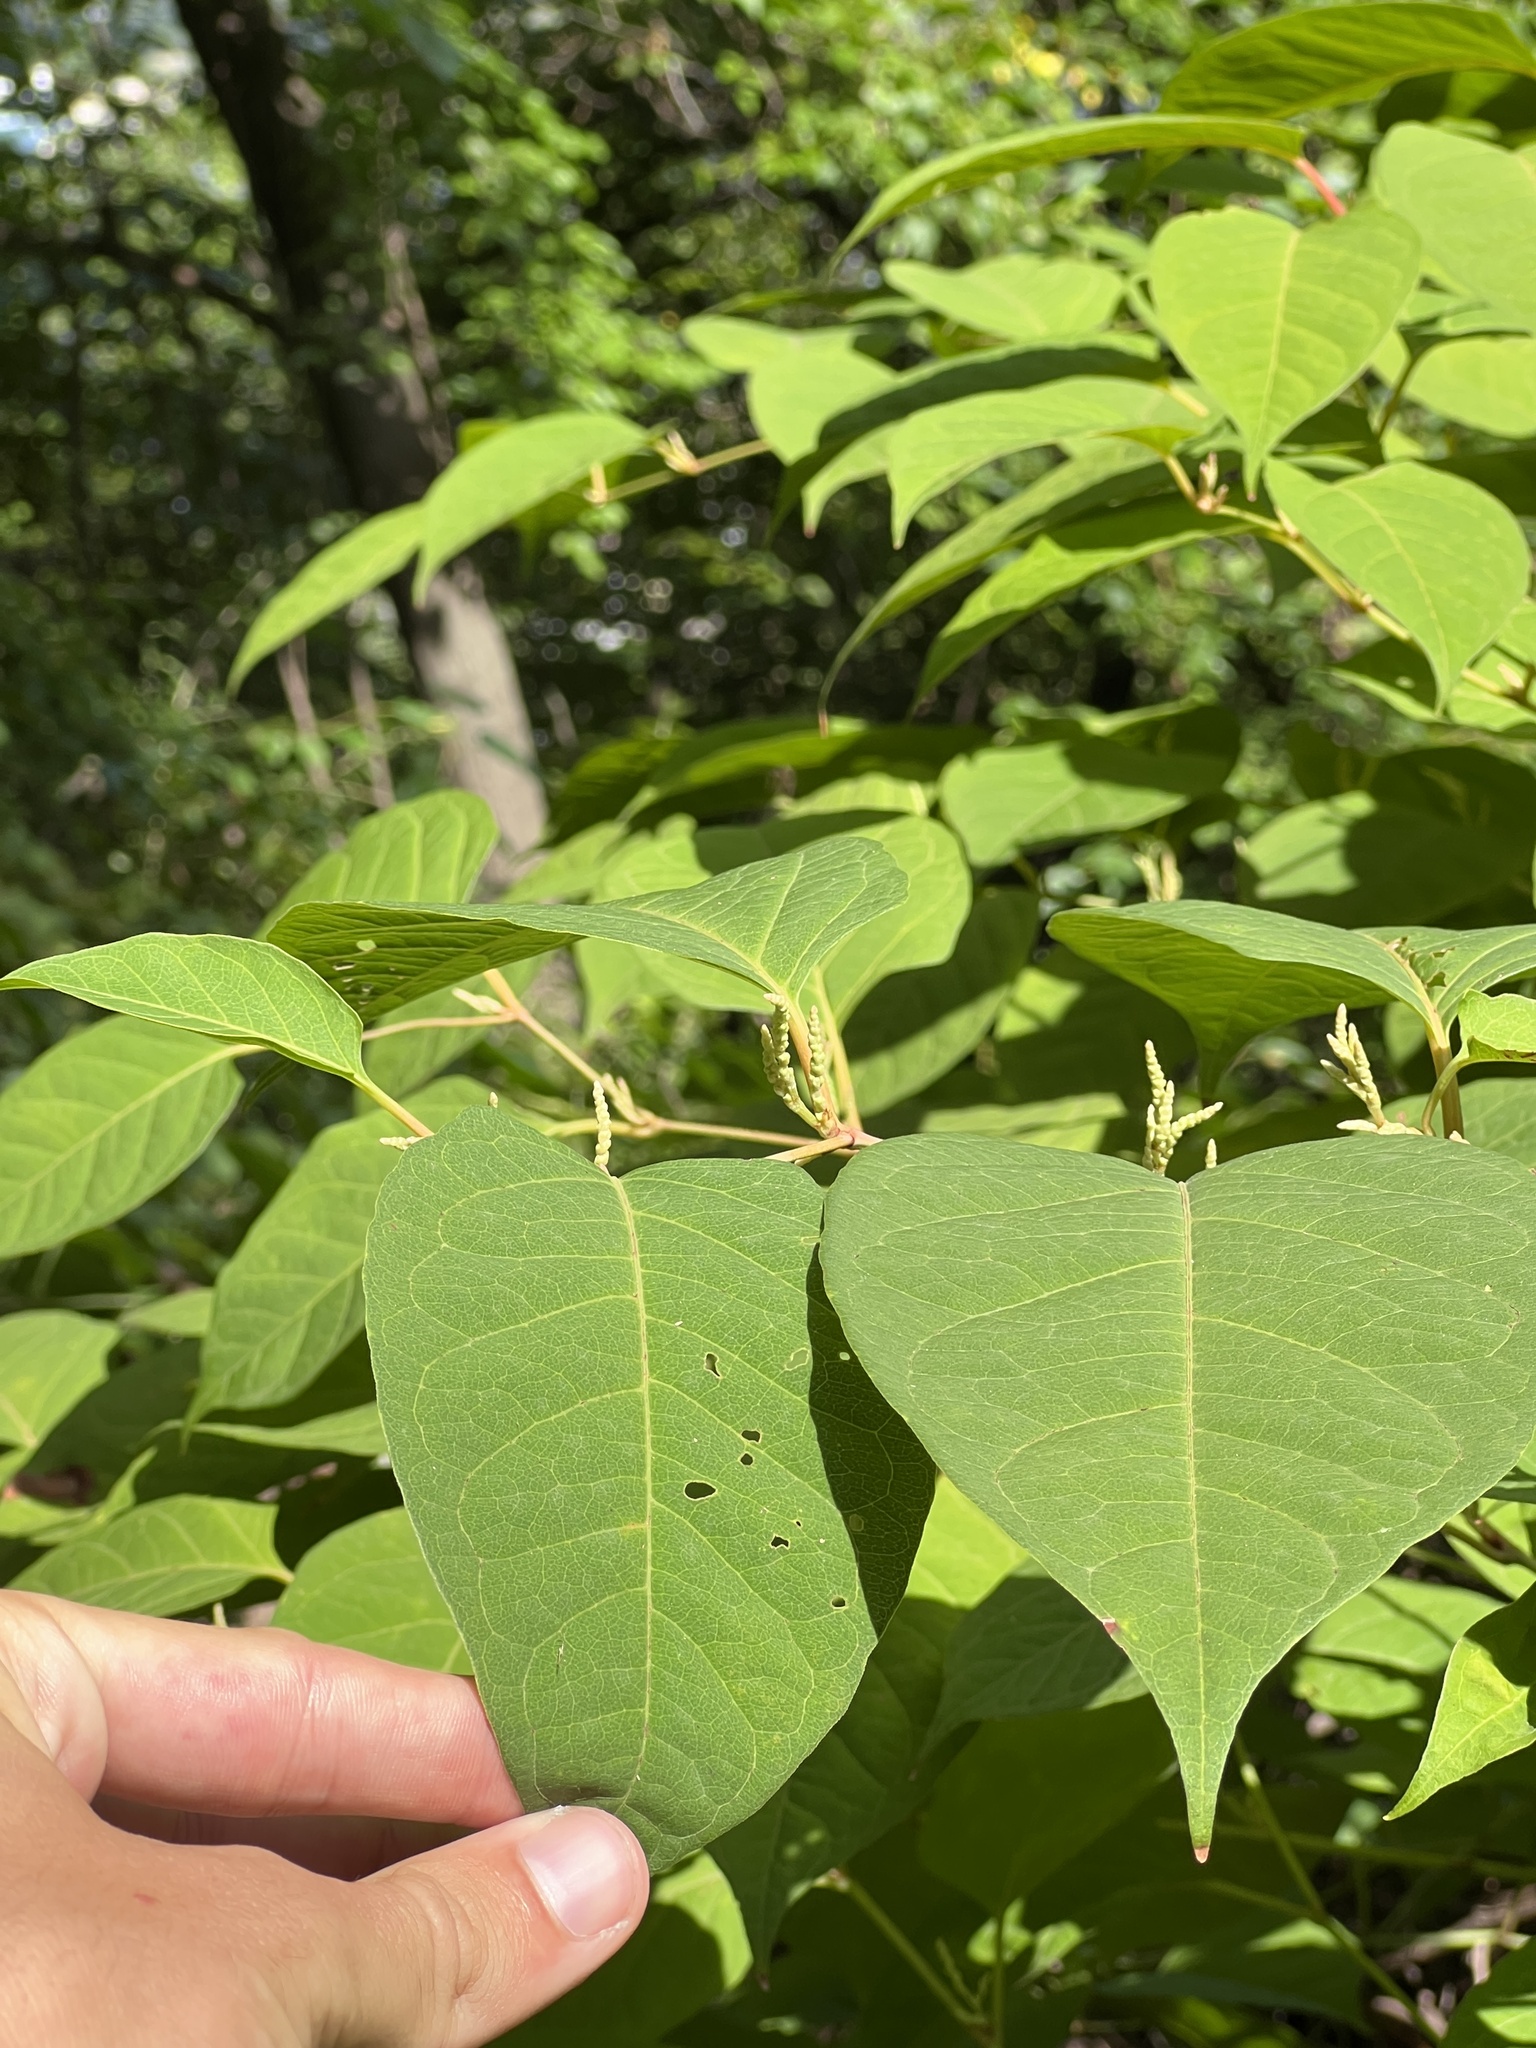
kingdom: Plantae
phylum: Tracheophyta
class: Magnoliopsida
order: Caryophyllales
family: Polygonaceae
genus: Reynoutria
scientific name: Reynoutria japonica
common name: Japanese knotweed
